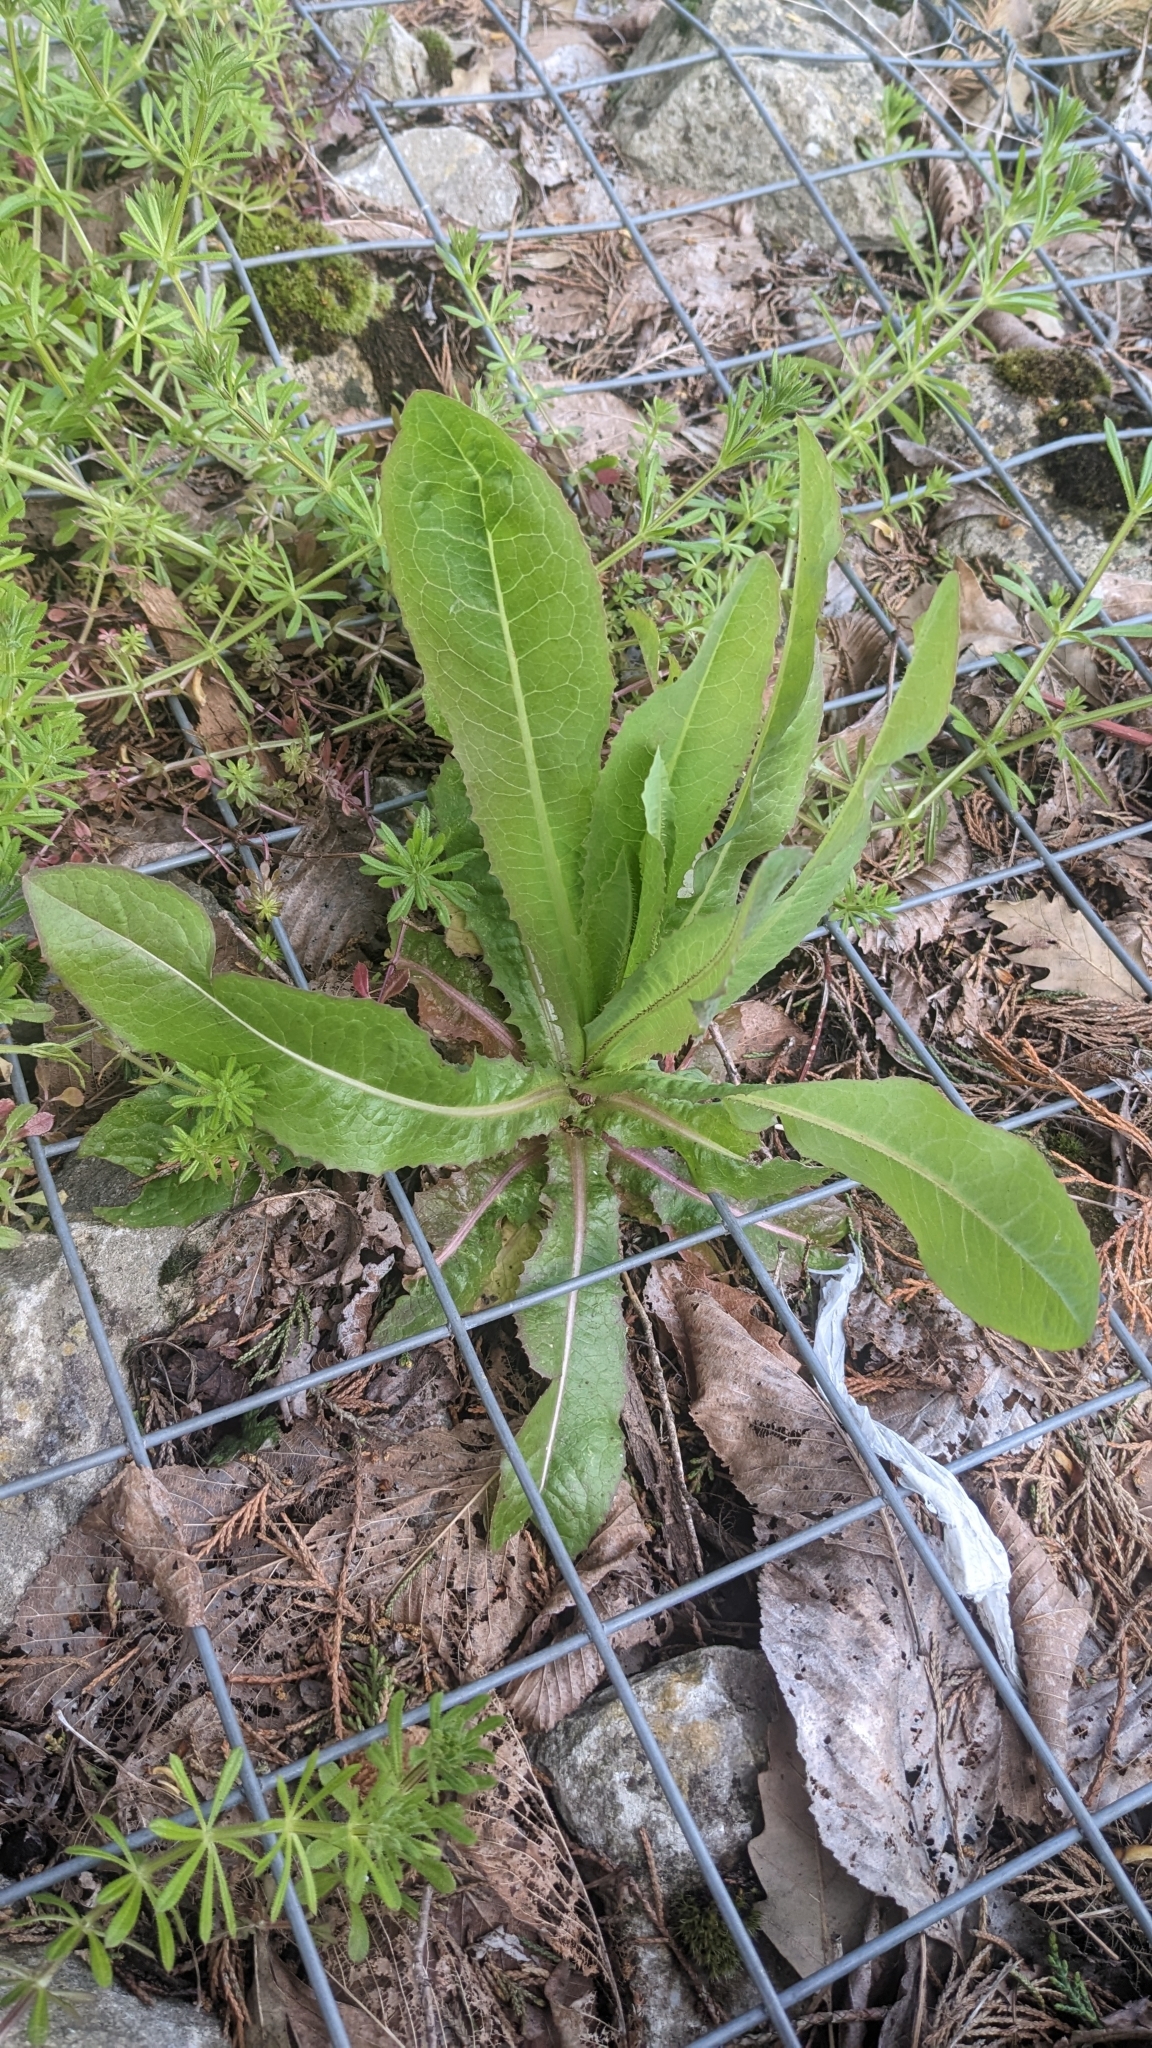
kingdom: Plantae
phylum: Tracheophyta
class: Magnoliopsida
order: Asterales
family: Asteraceae
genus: Lactuca
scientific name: Lactuca serriola
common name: Prickly lettuce
